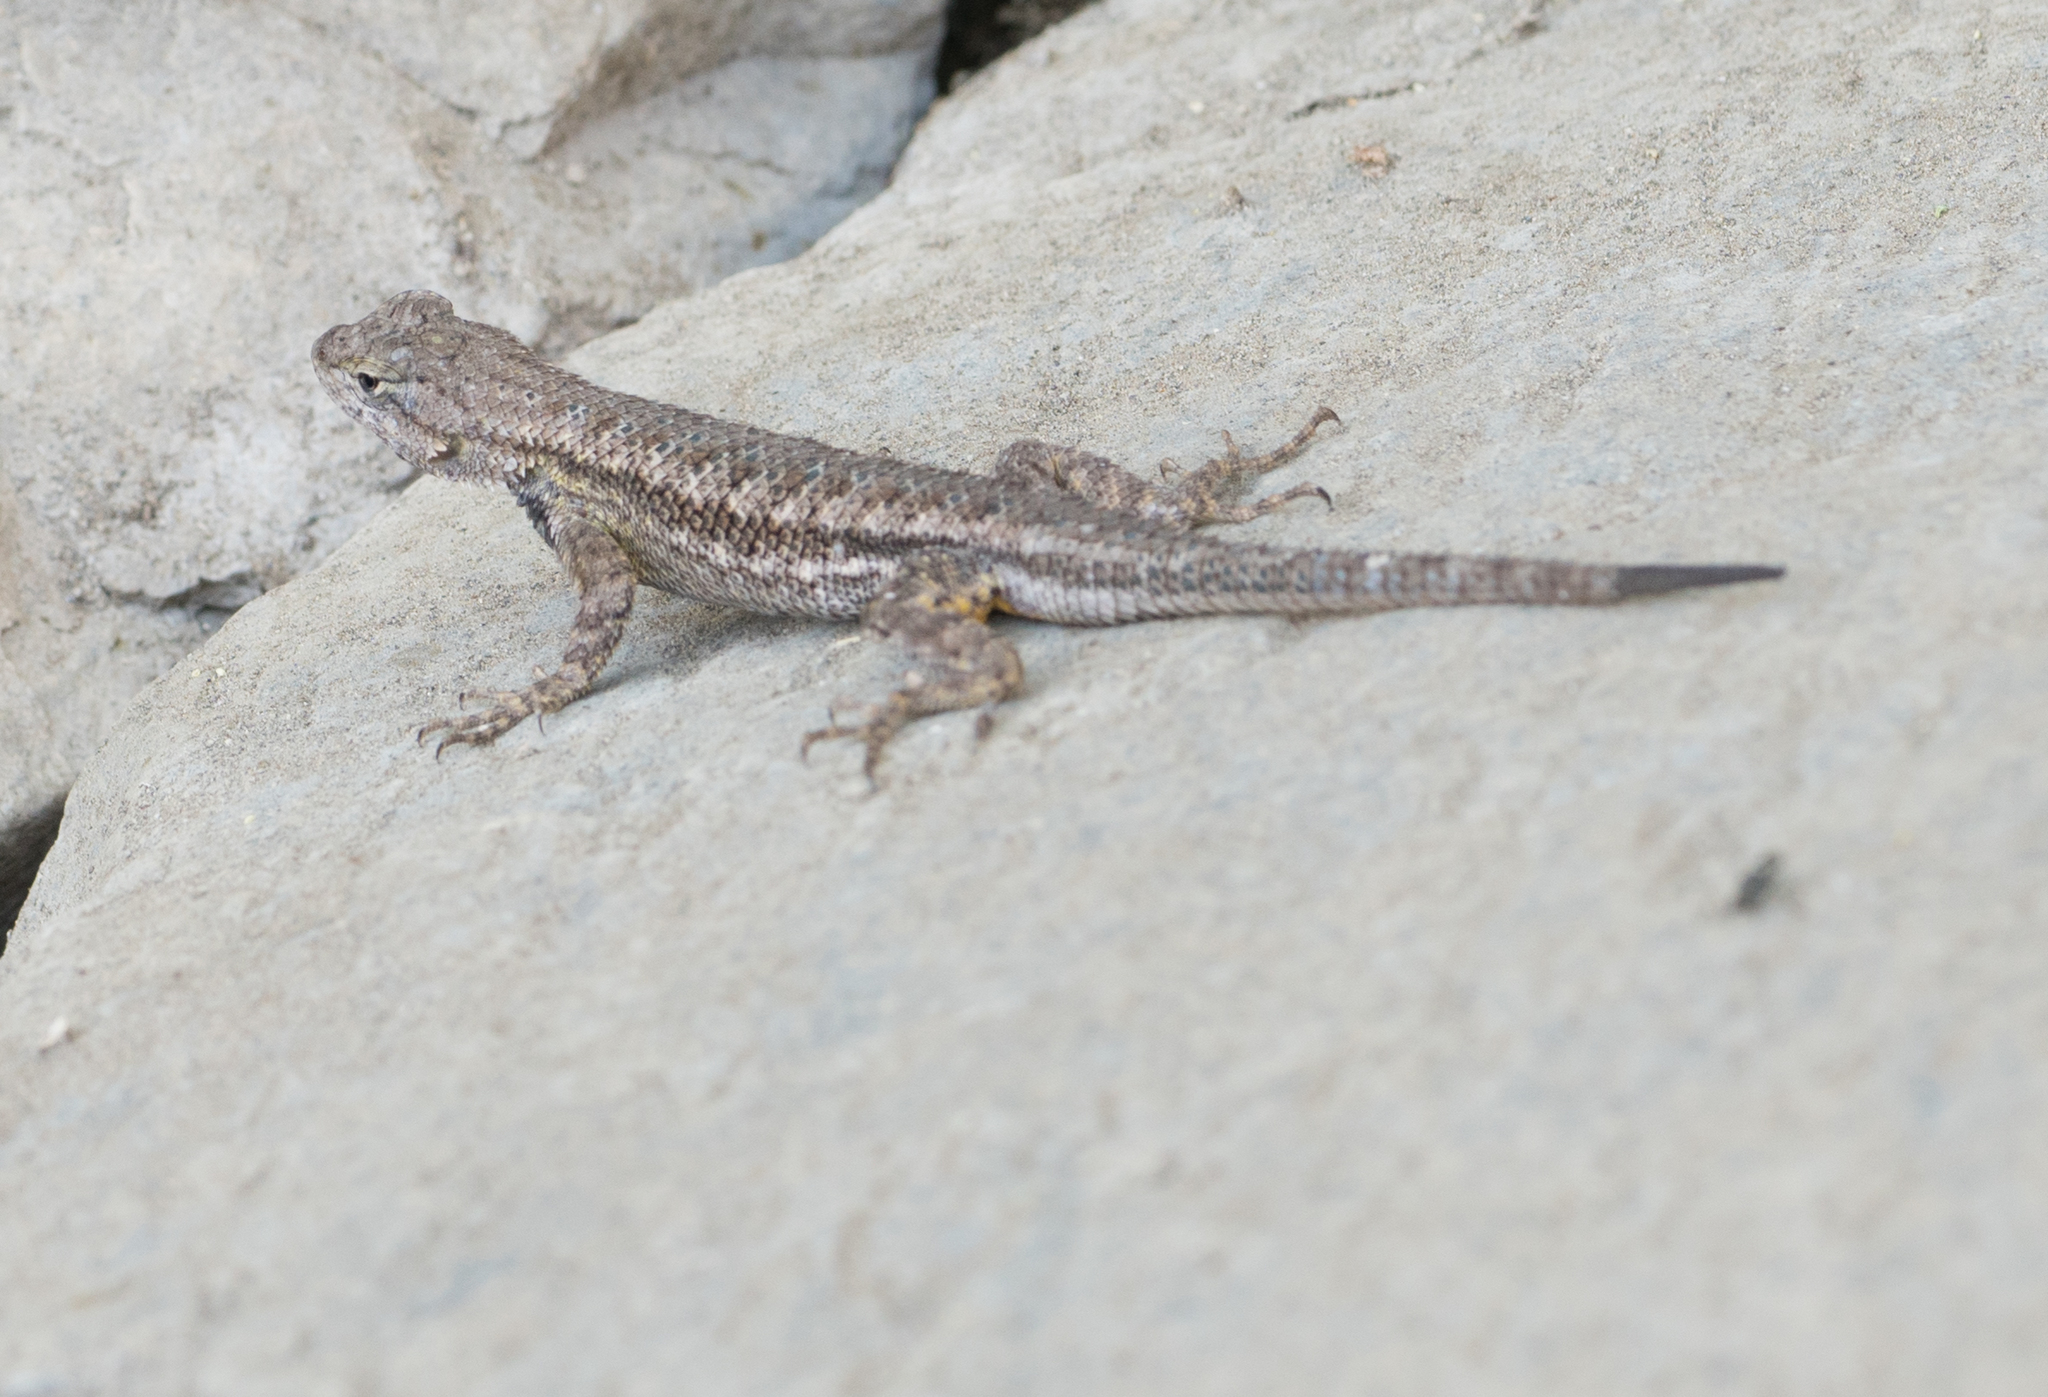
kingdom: Animalia
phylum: Chordata
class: Squamata
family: Phrynosomatidae
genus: Sceloporus
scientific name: Sceloporus occidentalis
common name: Western fence lizard
